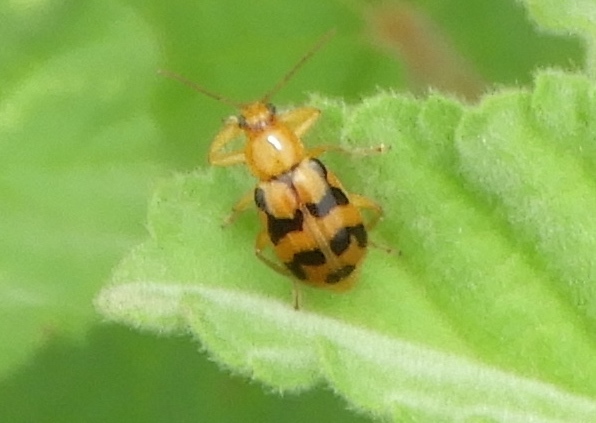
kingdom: Animalia
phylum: Arthropoda
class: Insecta
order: Coleoptera
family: Chrysomelidae
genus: Cerotoma
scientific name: Cerotoma
